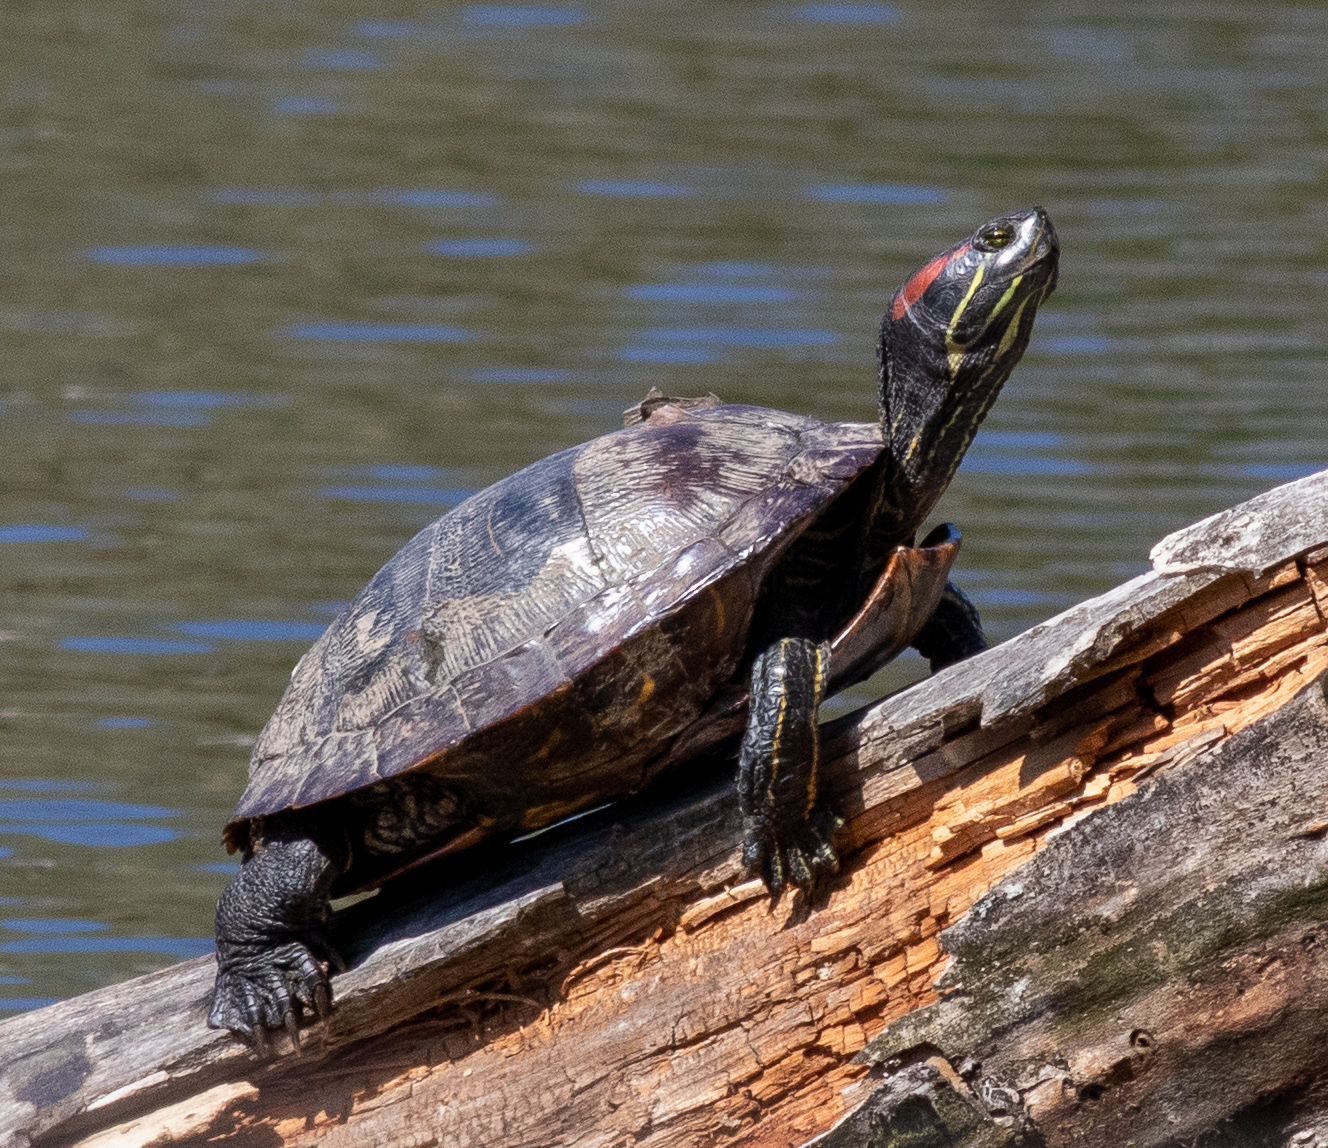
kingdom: Animalia
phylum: Chordata
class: Testudines
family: Emydidae
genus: Trachemys
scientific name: Trachemys scripta
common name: Slider
